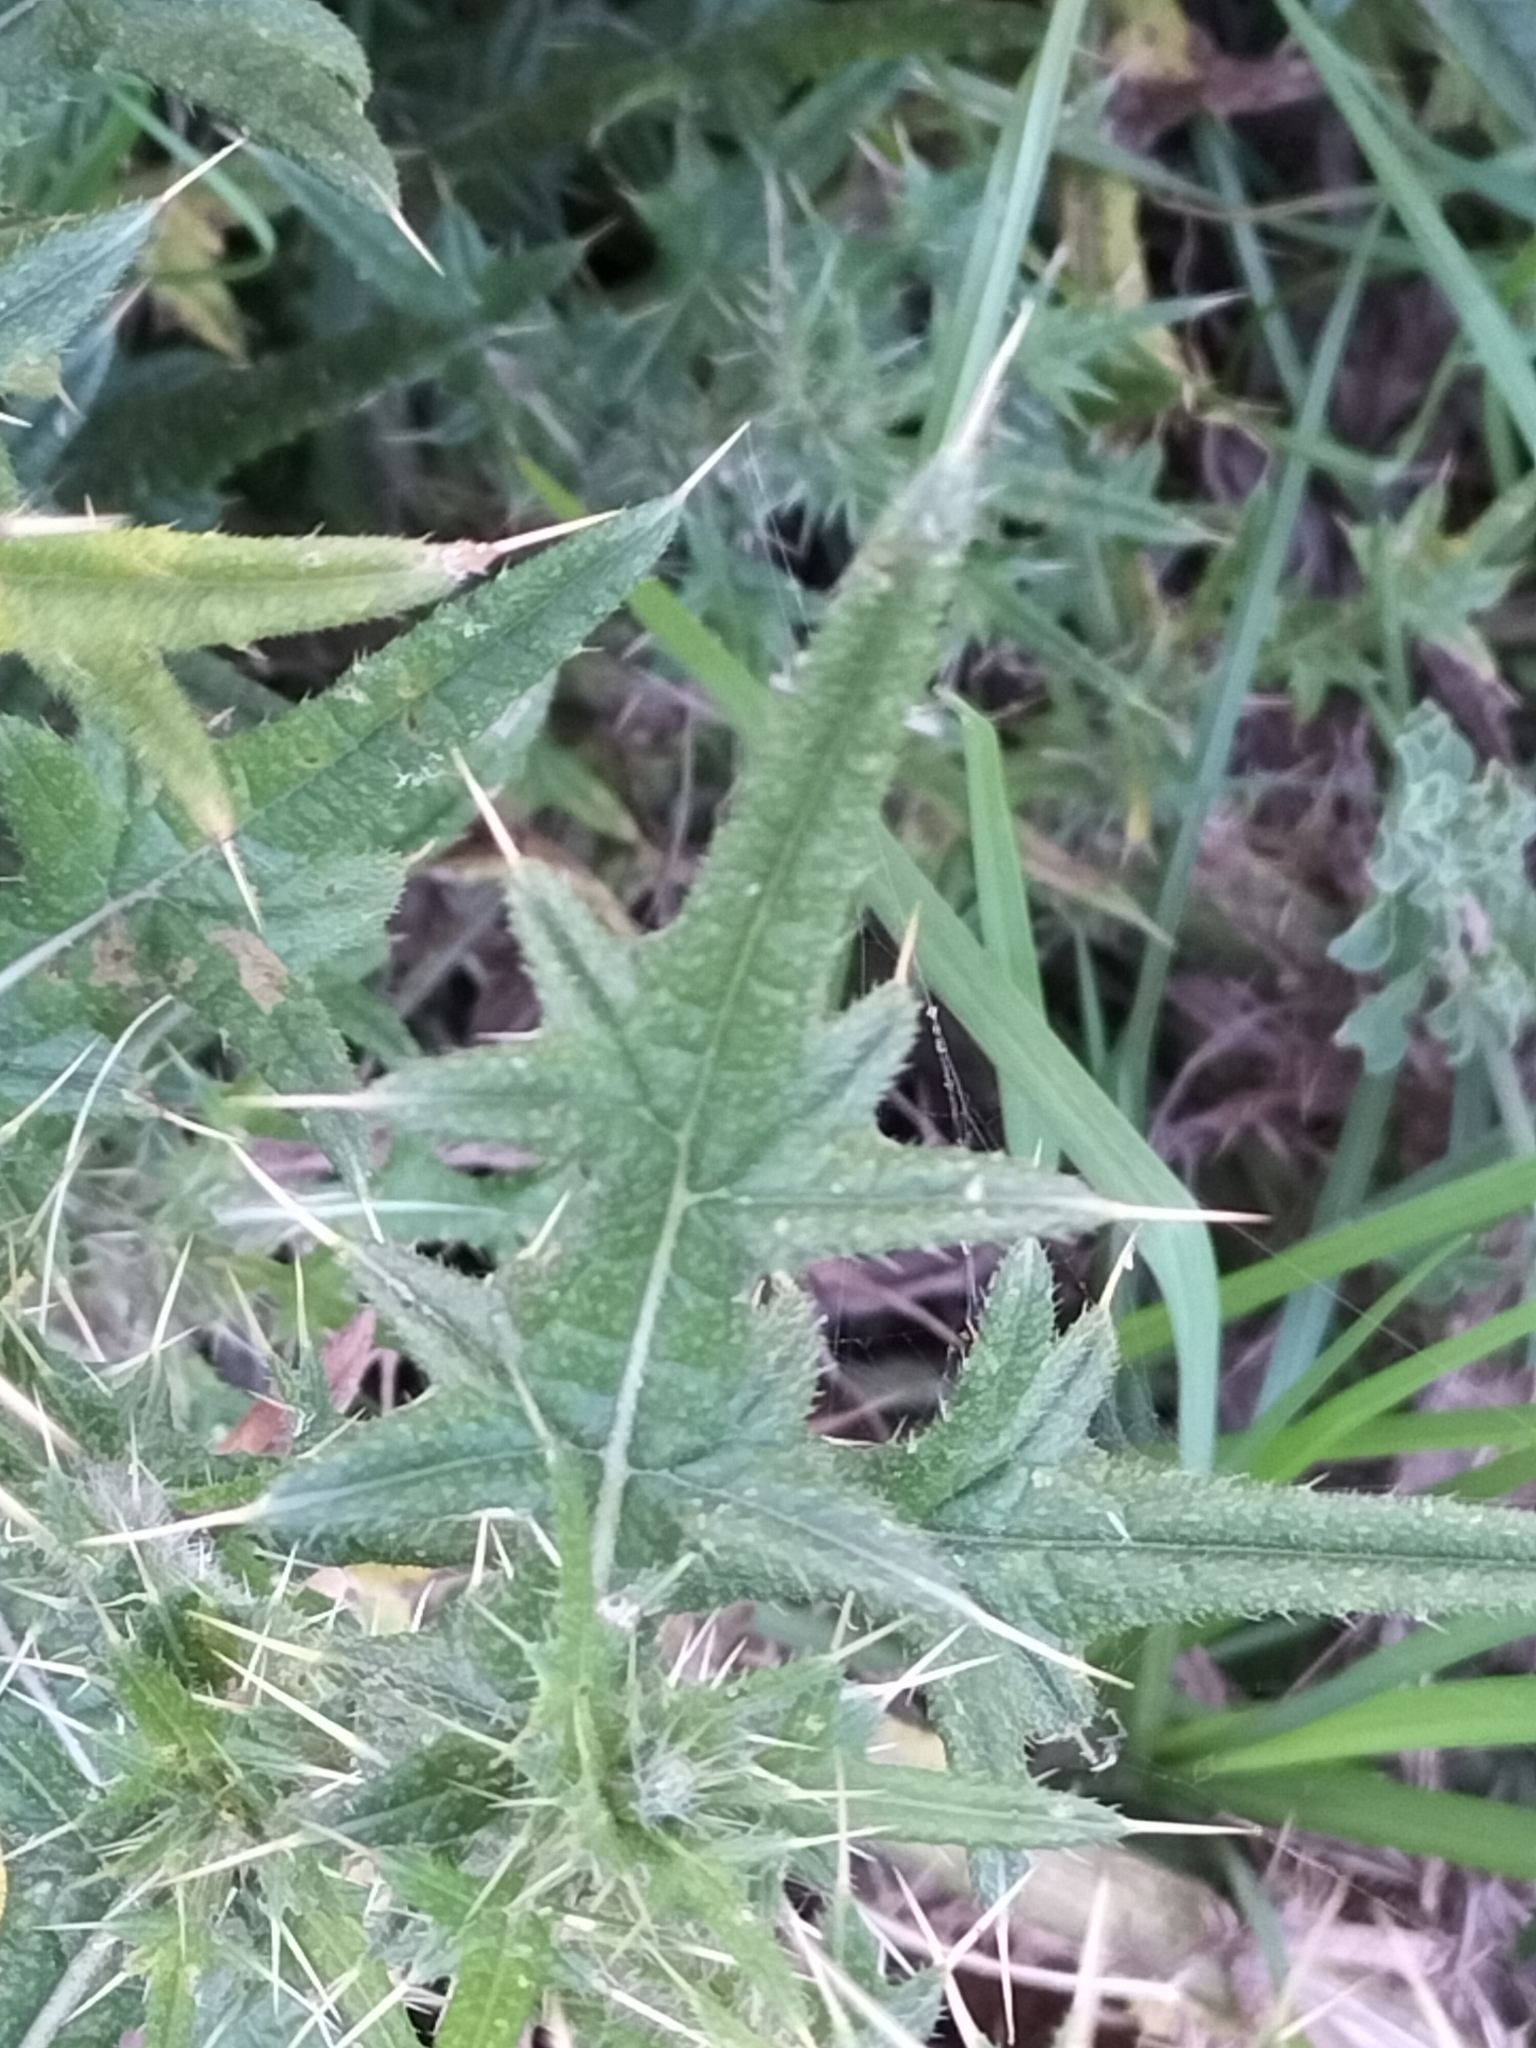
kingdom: Plantae
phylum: Tracheophyta
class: Magnoliopsida
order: Asterales
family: Asteraceae
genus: Cirsium
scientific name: Cirsium vulgare
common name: Bull thistle
